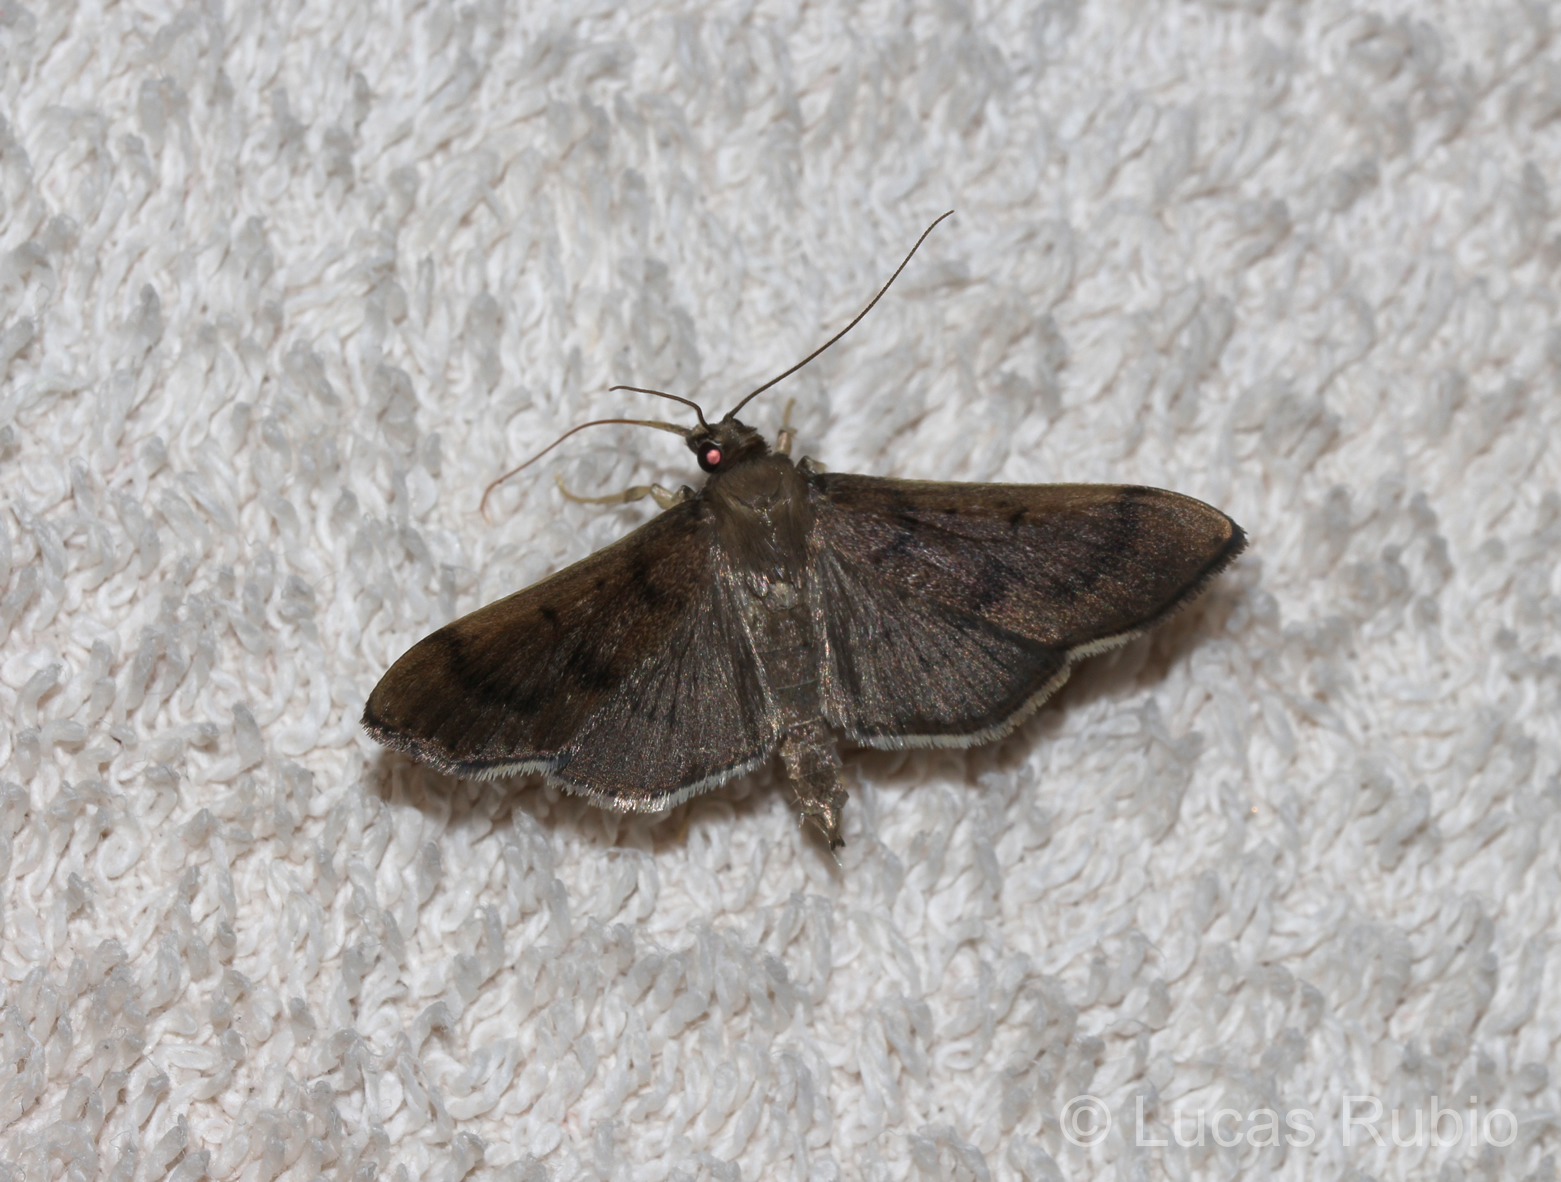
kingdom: Animalia
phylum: Arthropoda
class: Insecta
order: Lepidoptera
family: Crambidae
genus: Omiodes
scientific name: Omiodes alboanalis
